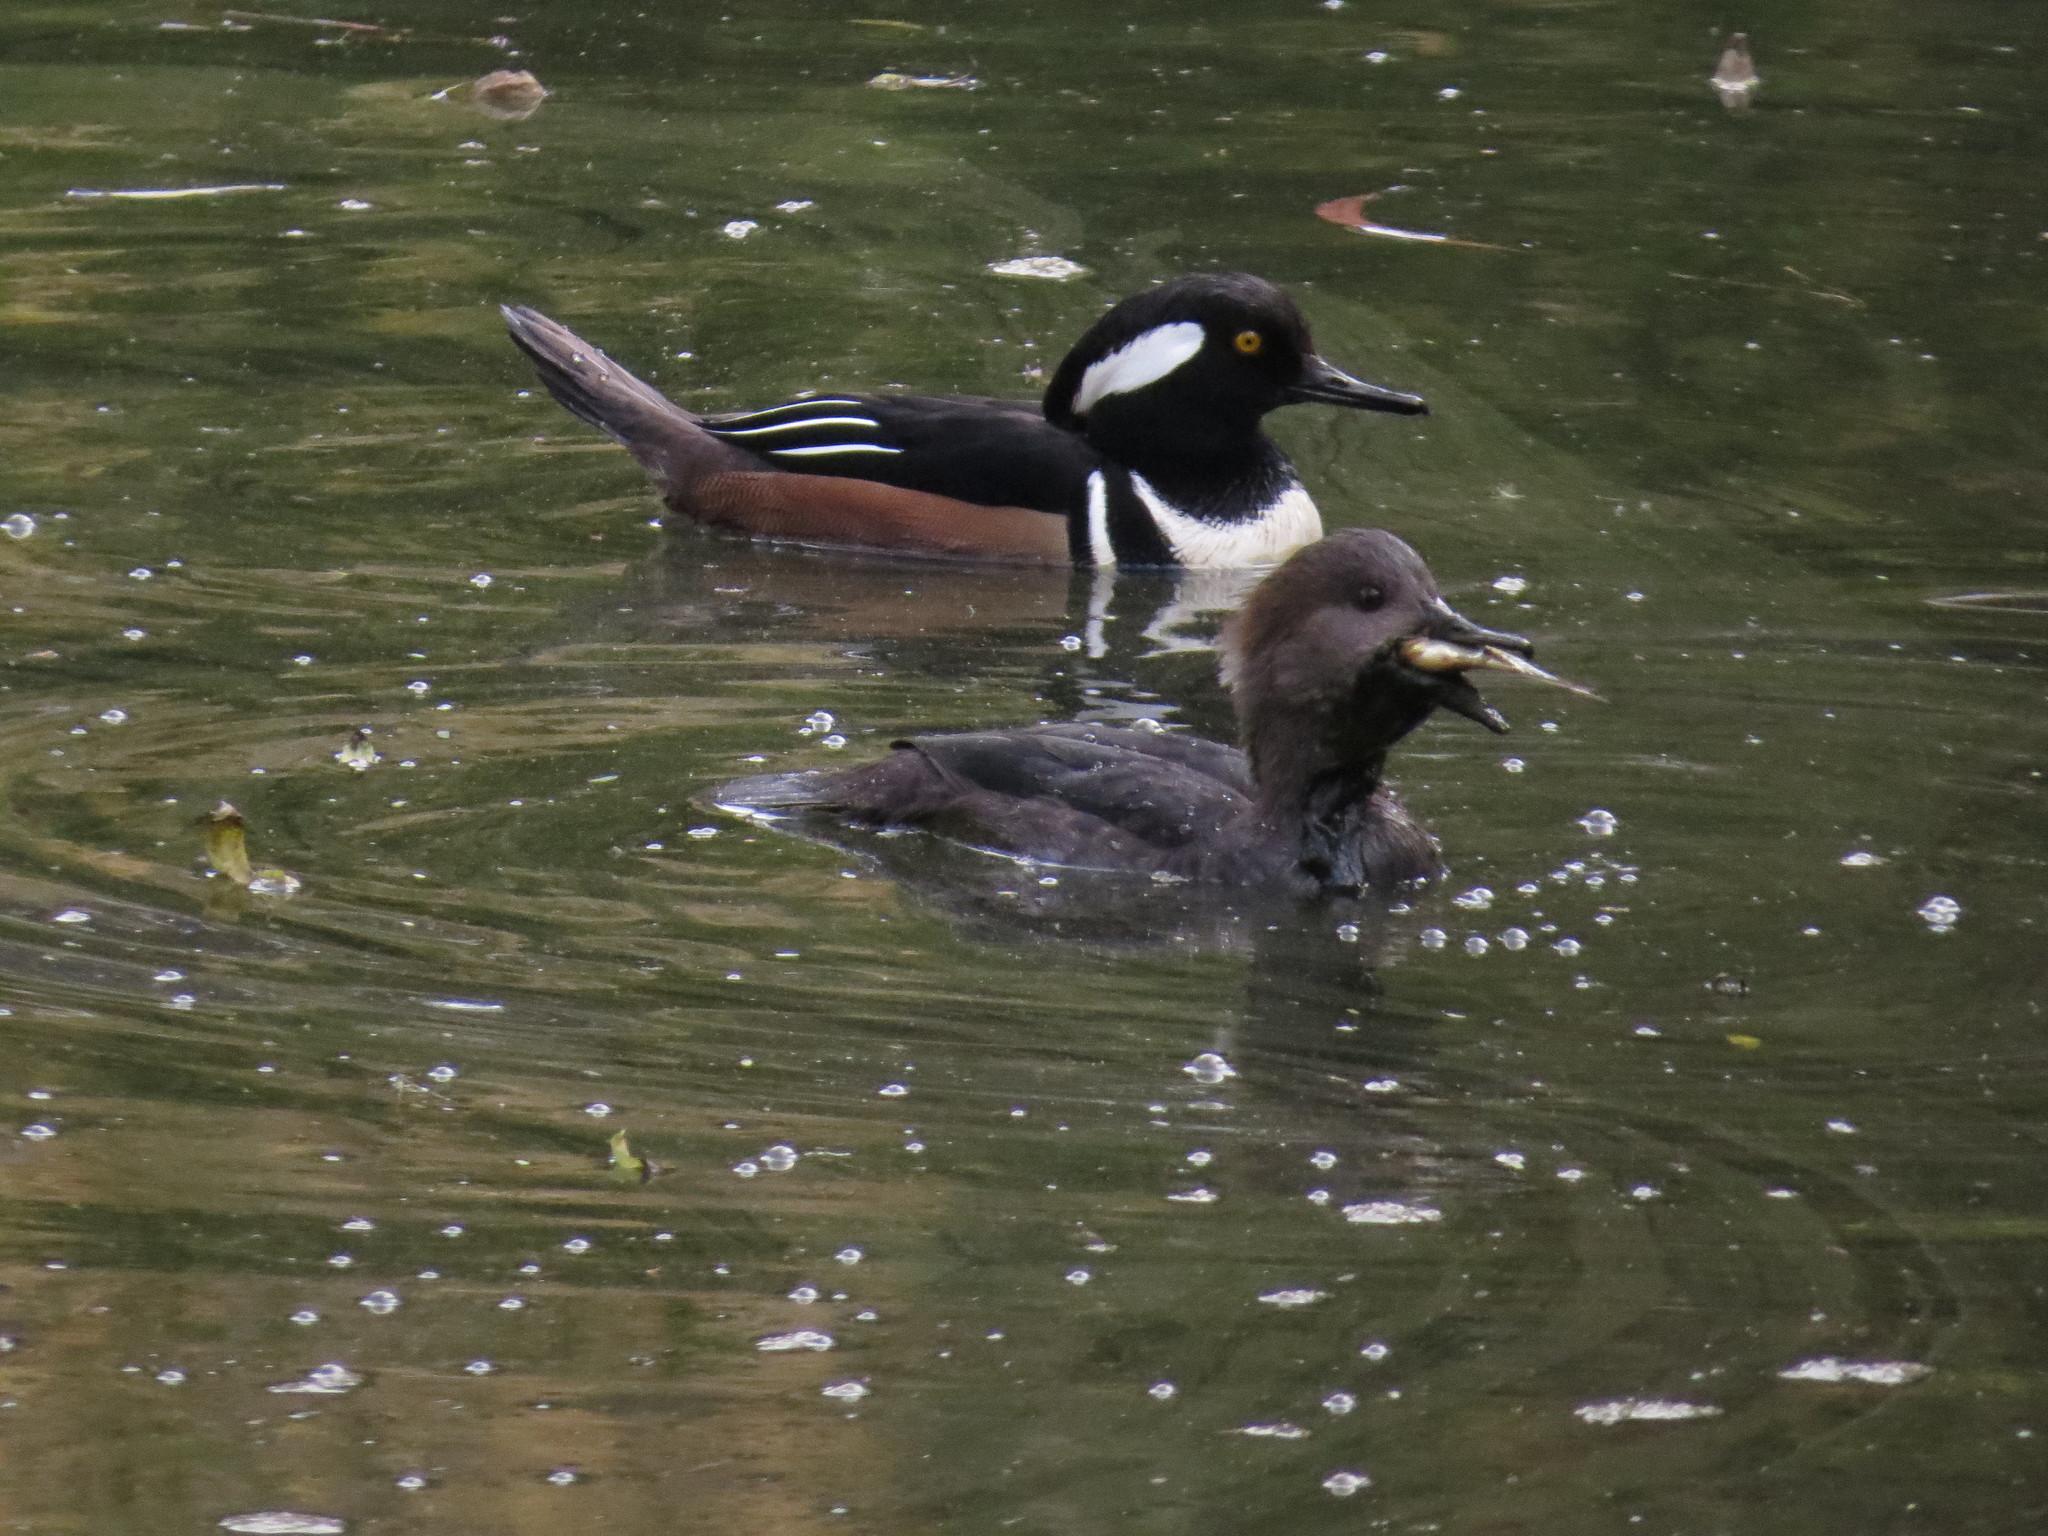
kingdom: Animalia
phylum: Chordata
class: Aves
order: Anseriformes
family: Anatidae
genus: Lophodytes
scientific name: Lophodytes cucullatus
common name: Hooded merganser
